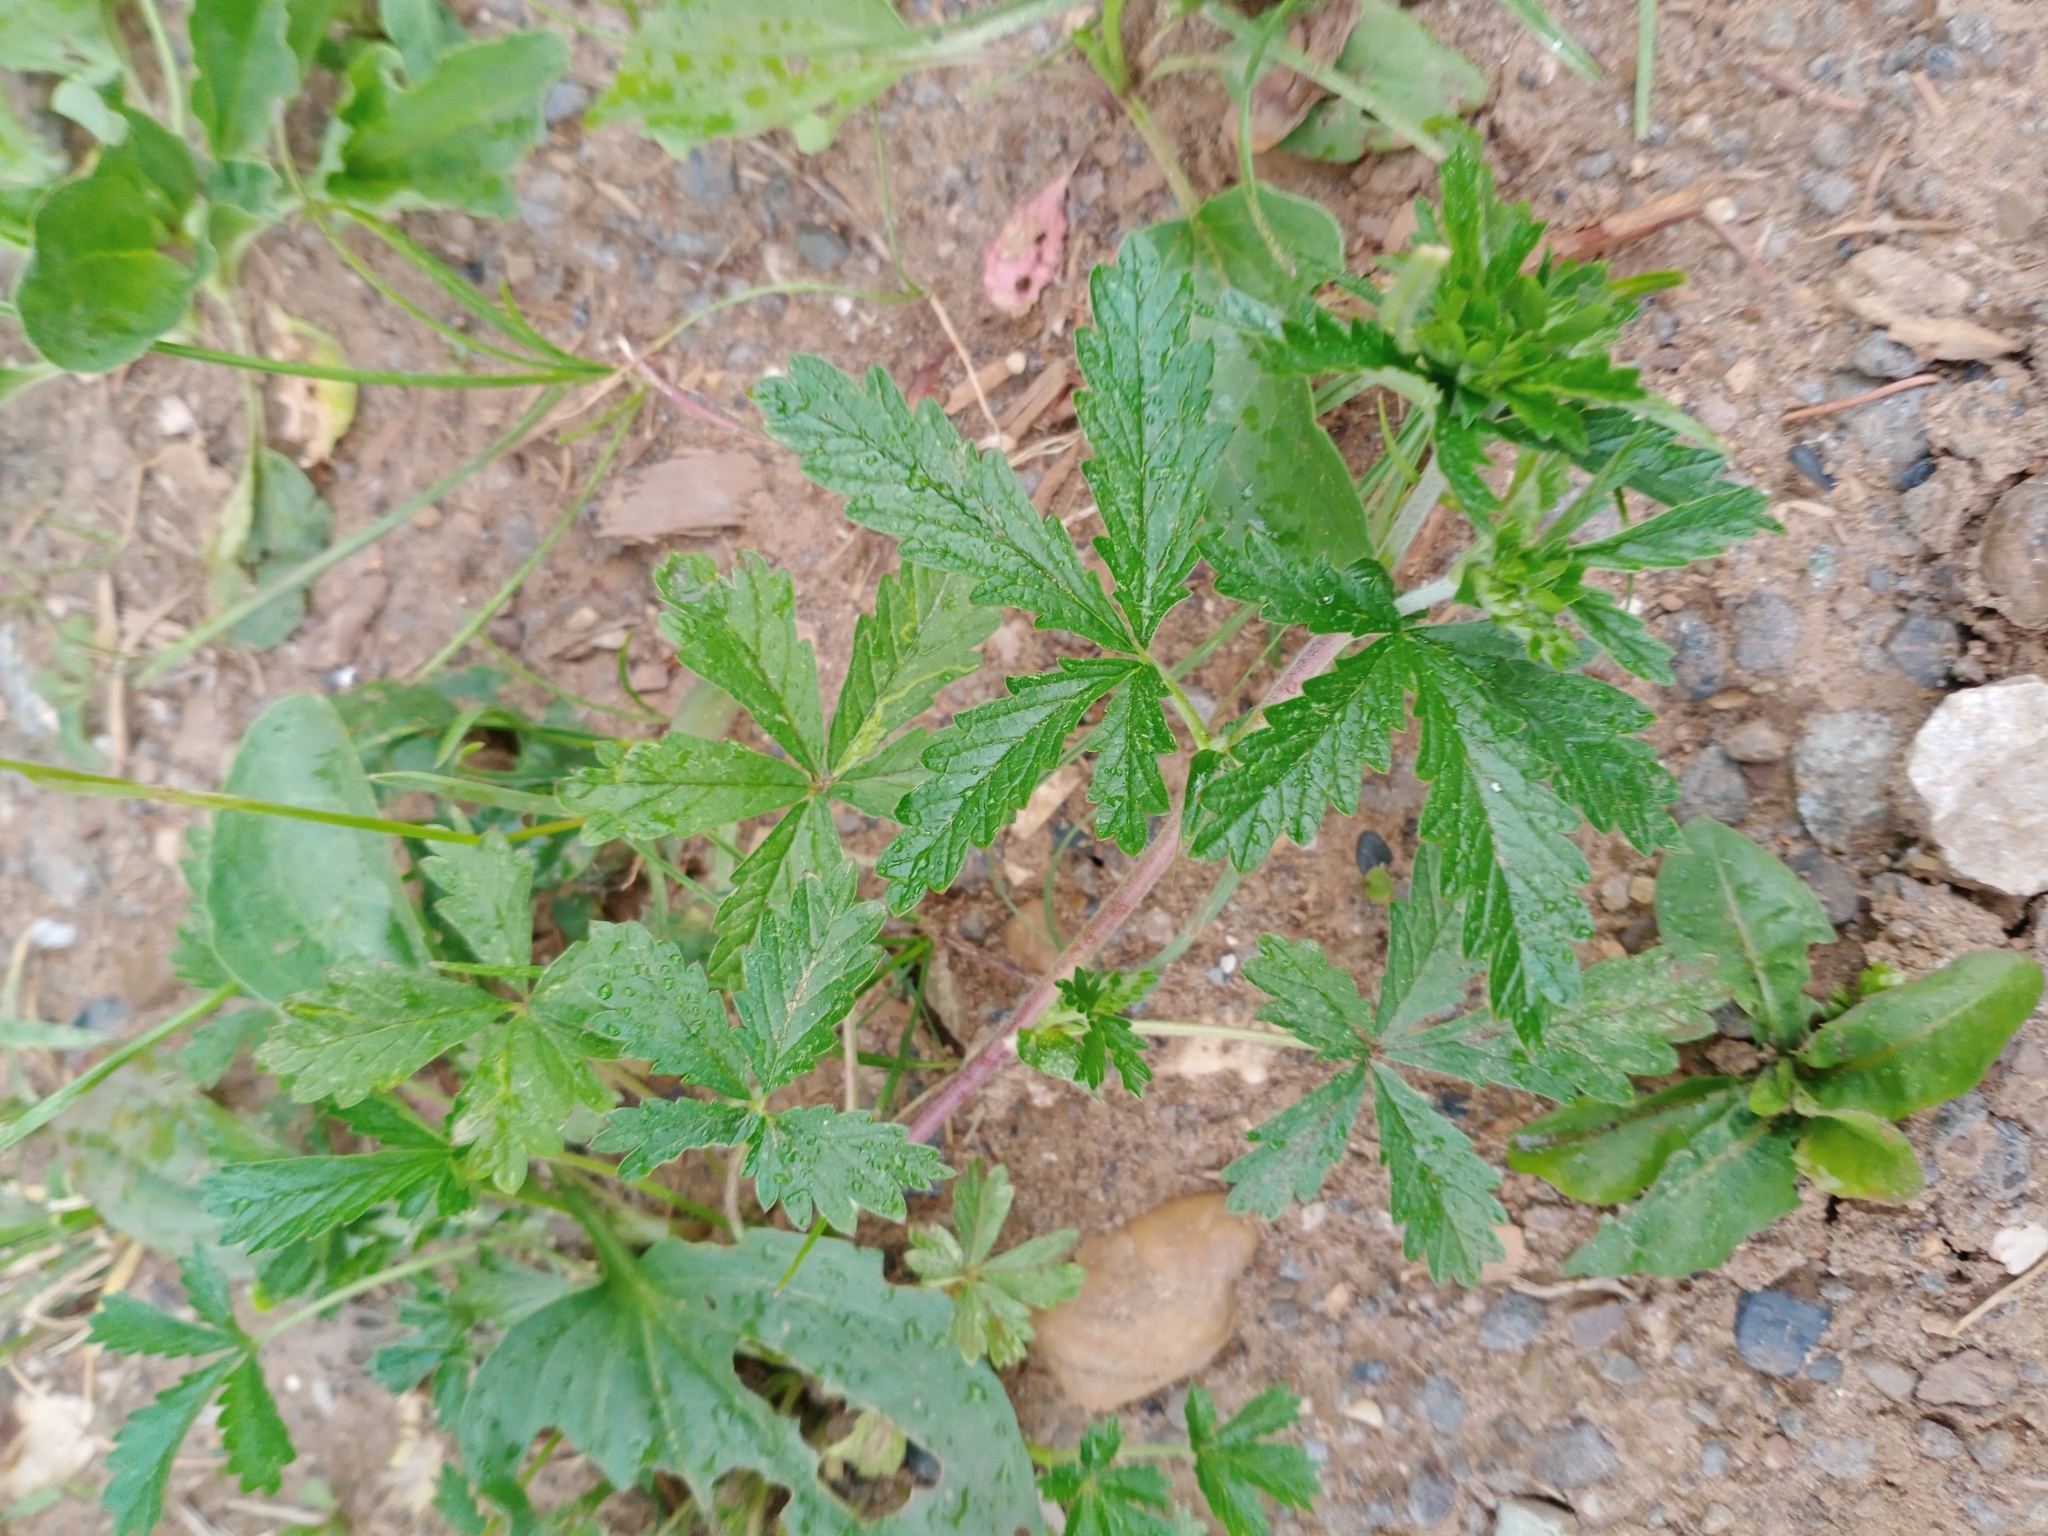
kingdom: Plantae
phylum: Tracheophyta
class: Magnoliopsida
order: Rosales
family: Rosaceae
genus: Potentilla
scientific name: Potentilla intermedia
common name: Downy cinquefoil
